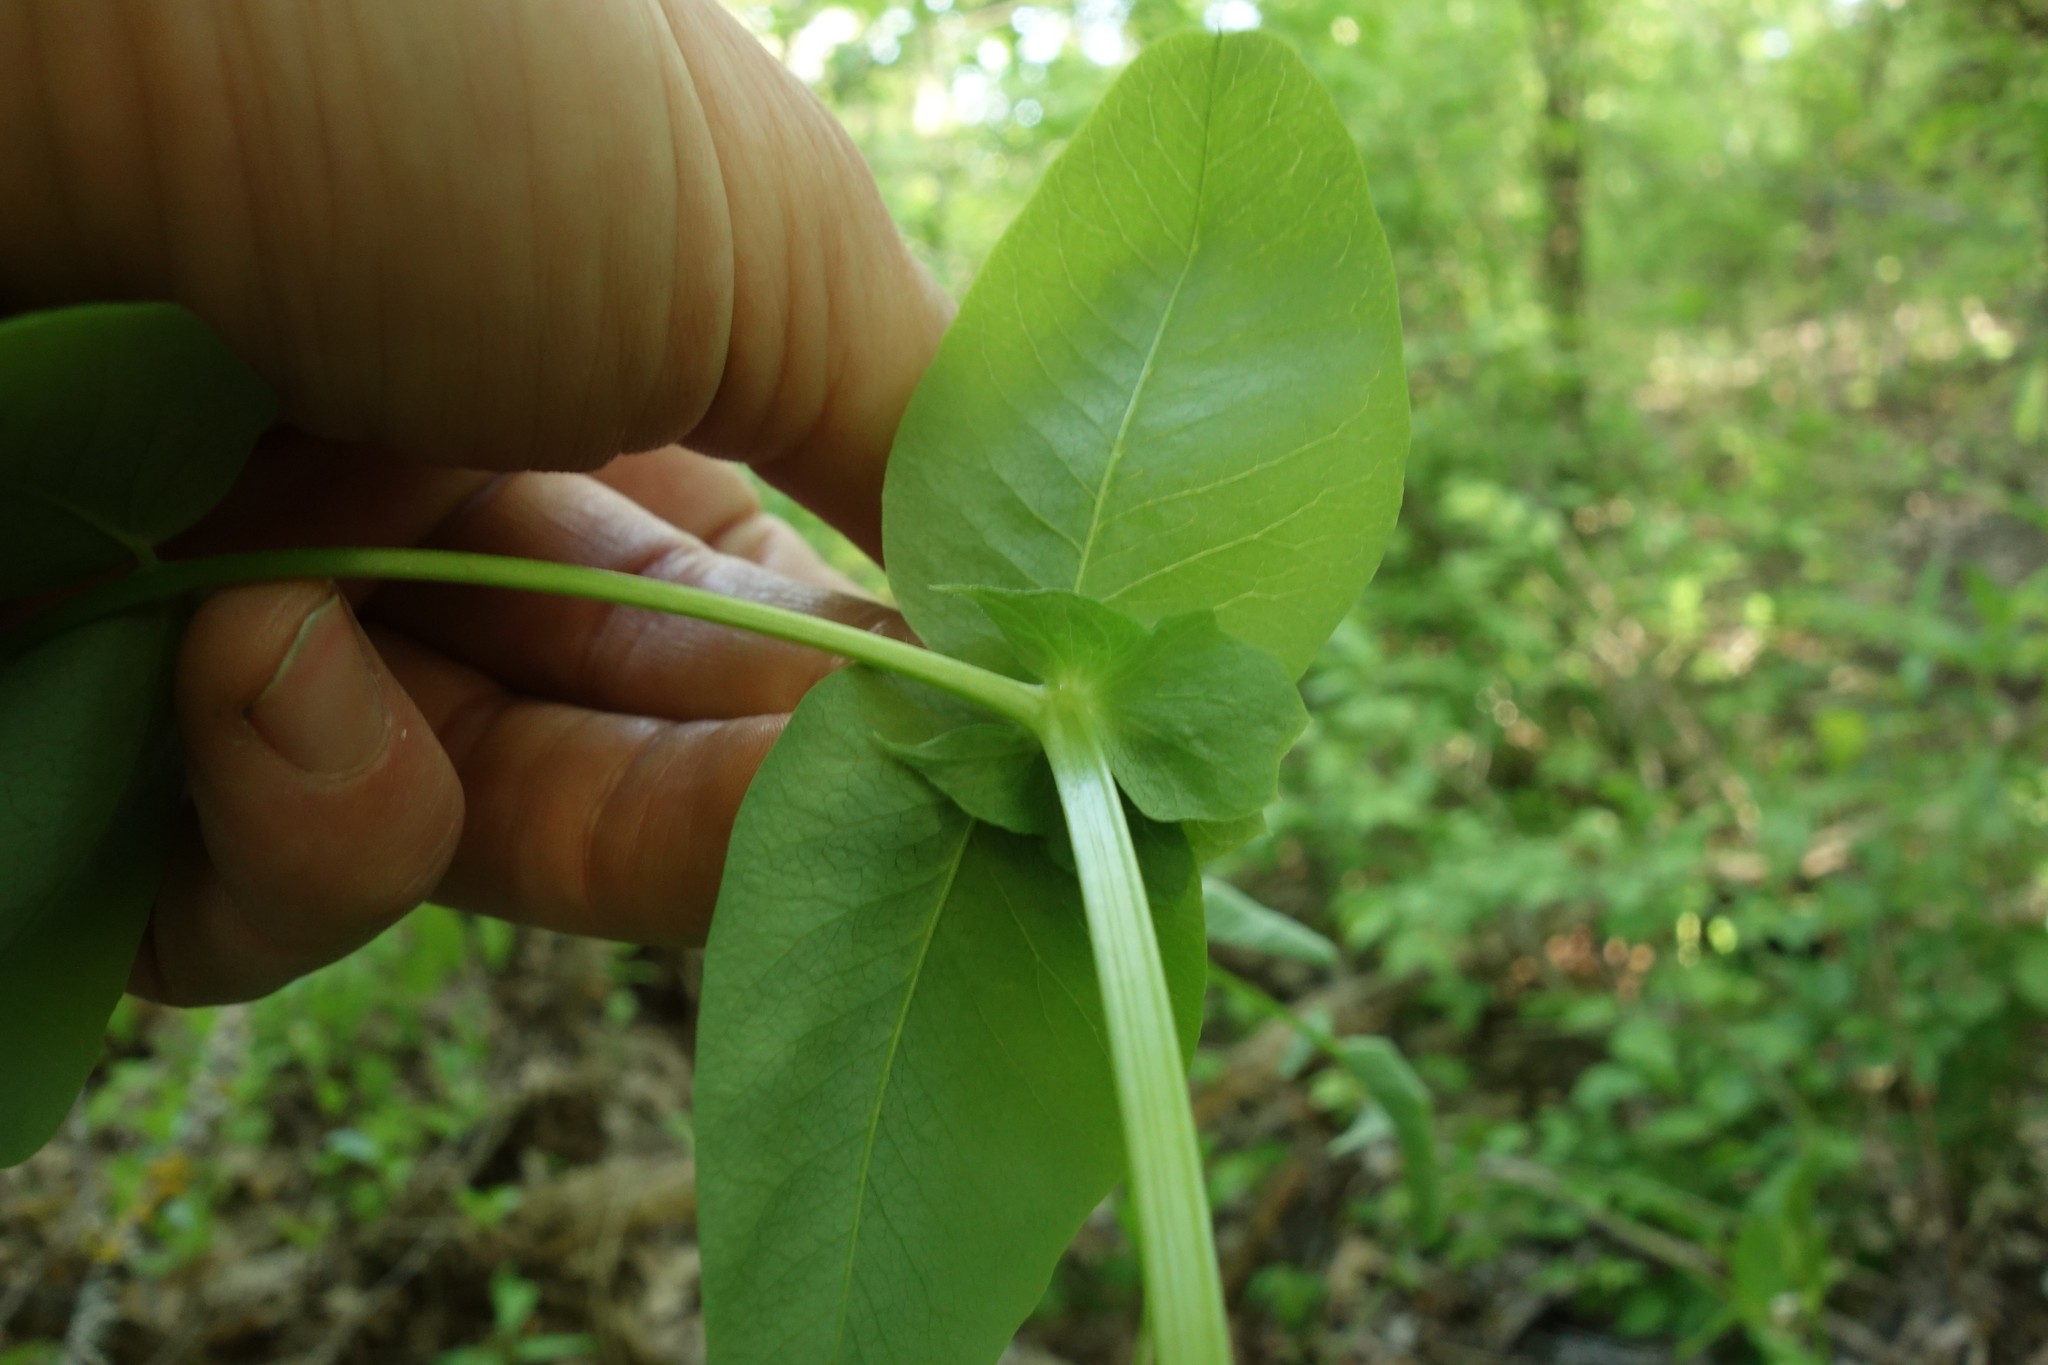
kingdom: Plantae
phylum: Tracheophyta
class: Magnoliopsida
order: Fabales
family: Fabaceae
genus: Vicia
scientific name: Vicia pisiformis
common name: Pale-flower vetch
